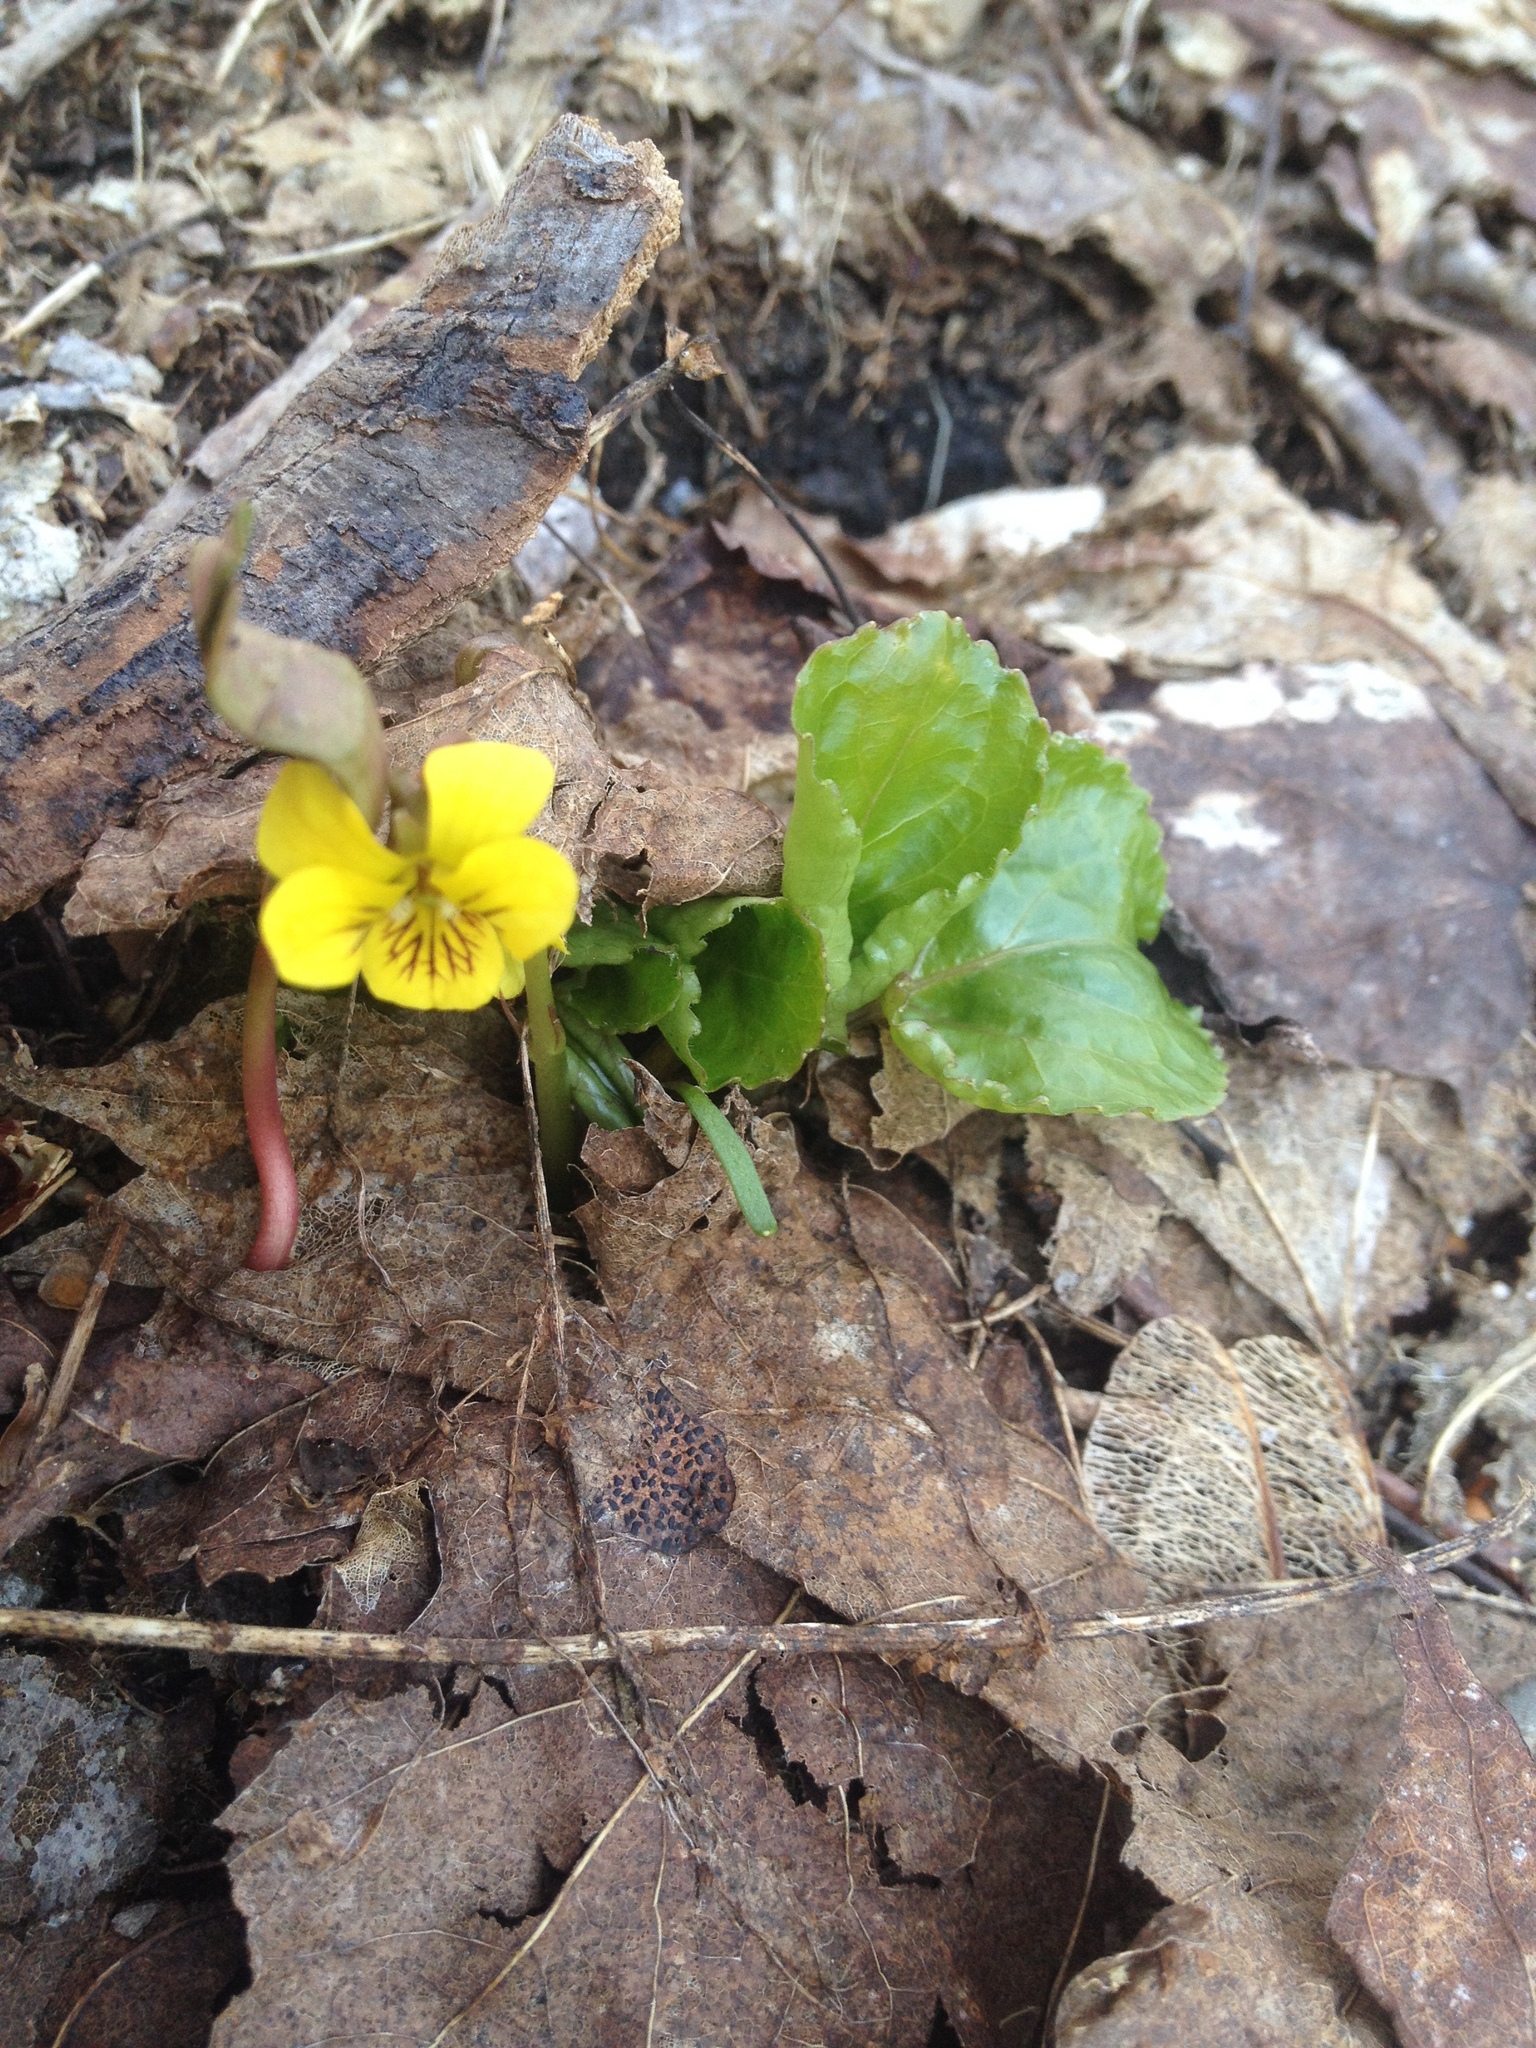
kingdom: Plantae
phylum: Tracheophyta
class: Magnoliopsida
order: Malpighiales
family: Violaceae
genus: Viola
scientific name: Viola rotundifolia
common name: Early yellow violet
